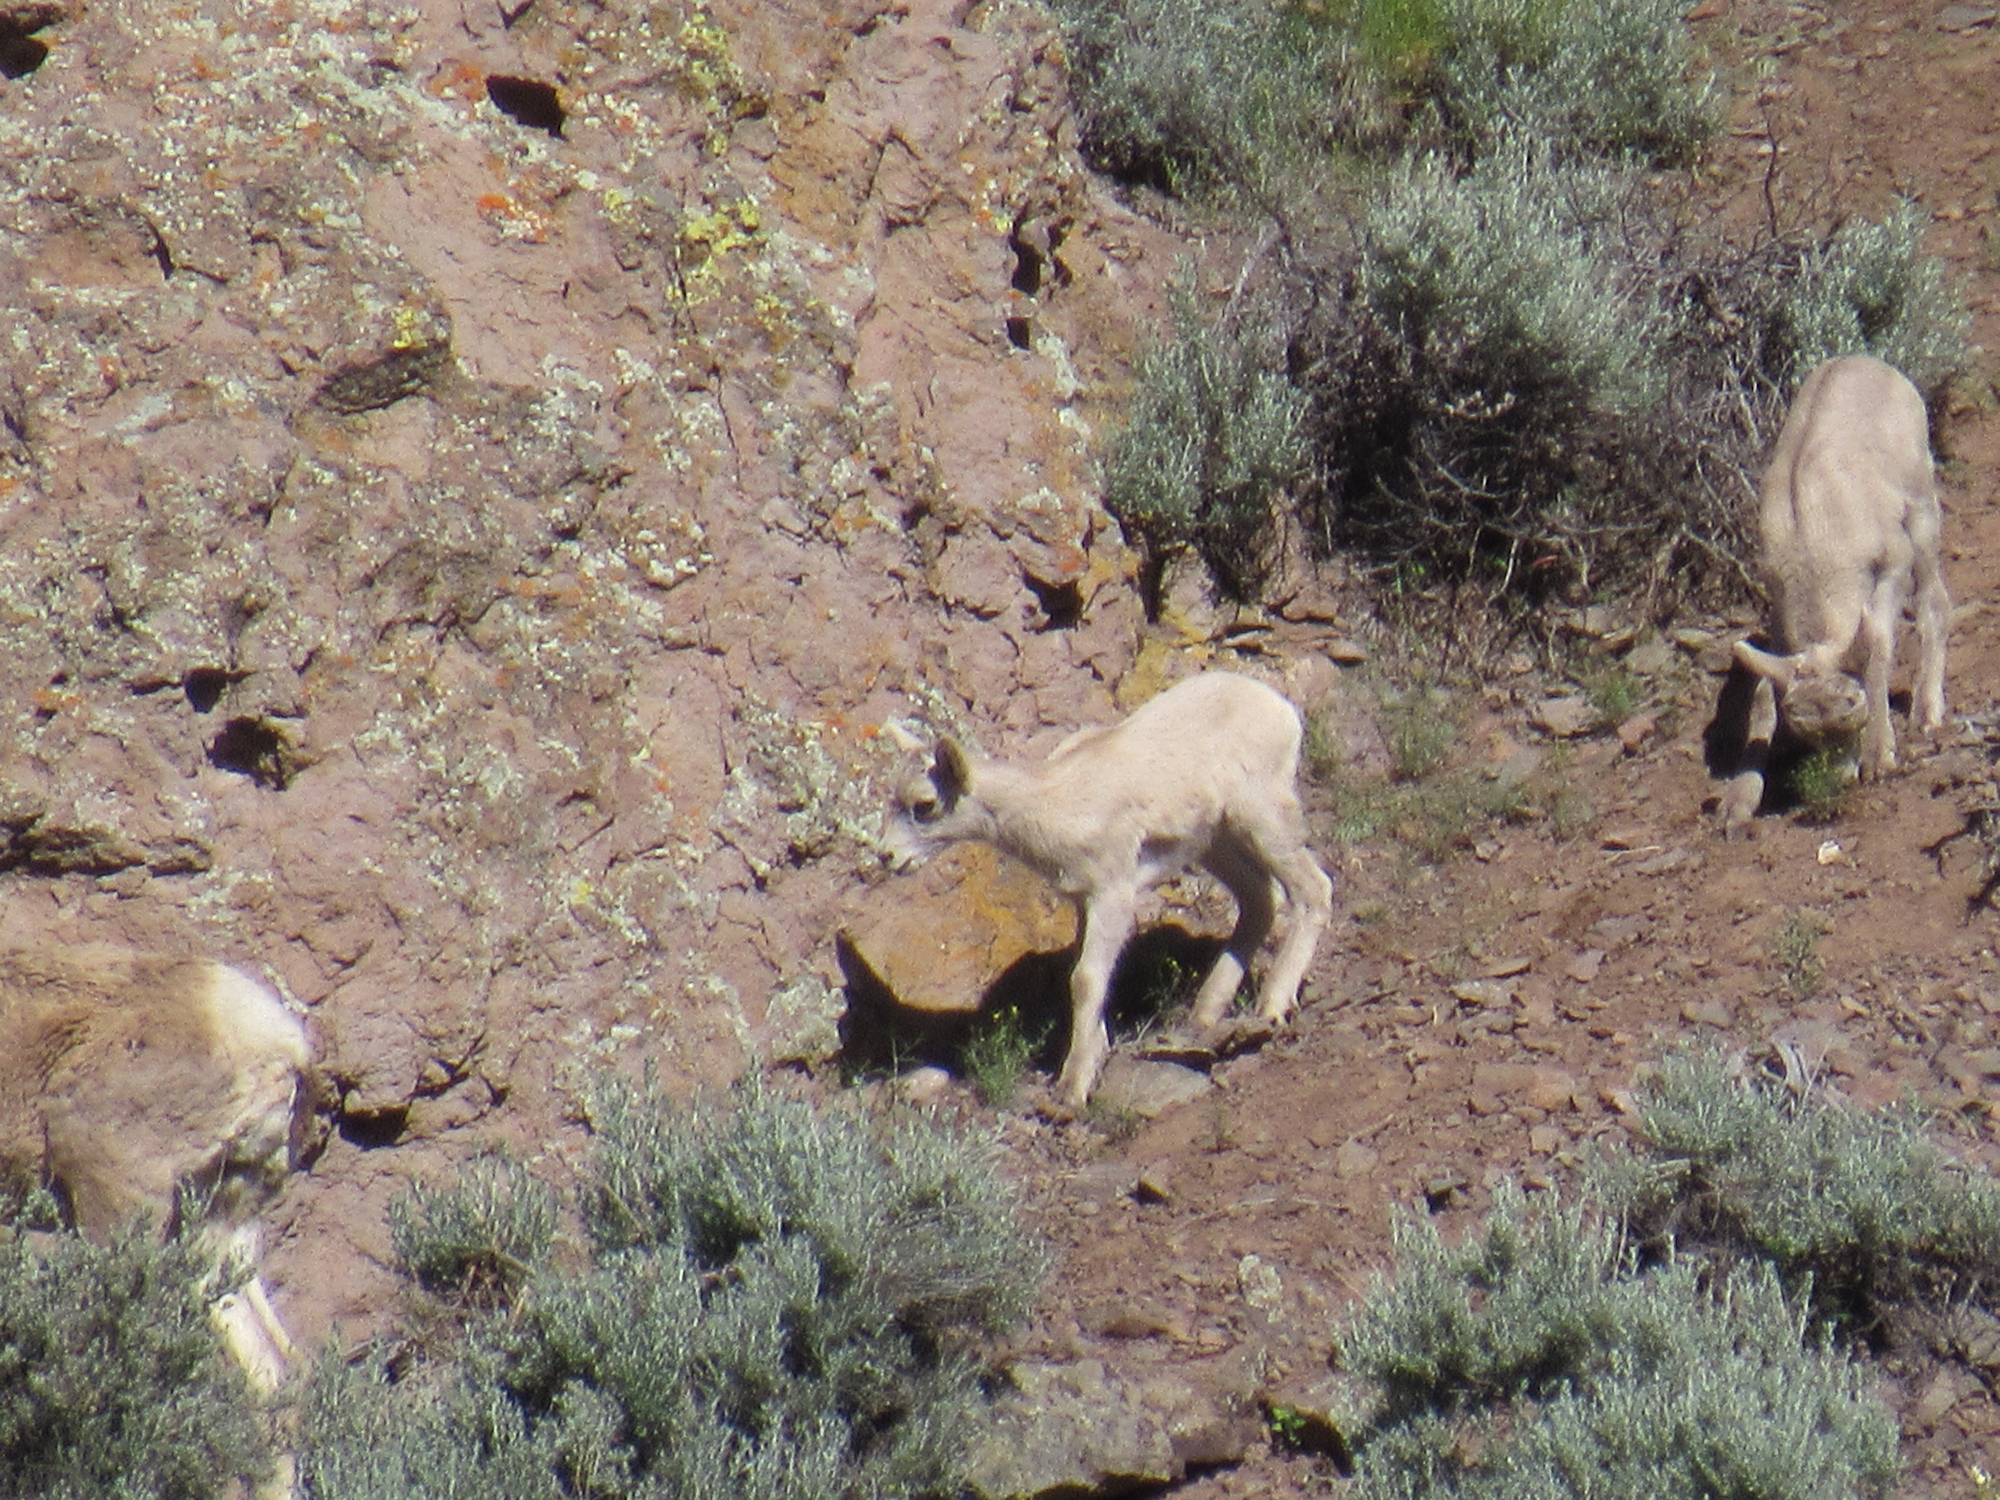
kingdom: Animalia
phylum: Chordata
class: Mammalia
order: Artiodactyla
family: Bovidae
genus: Ovis
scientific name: Ovis canadensis
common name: Bighorn sheep
